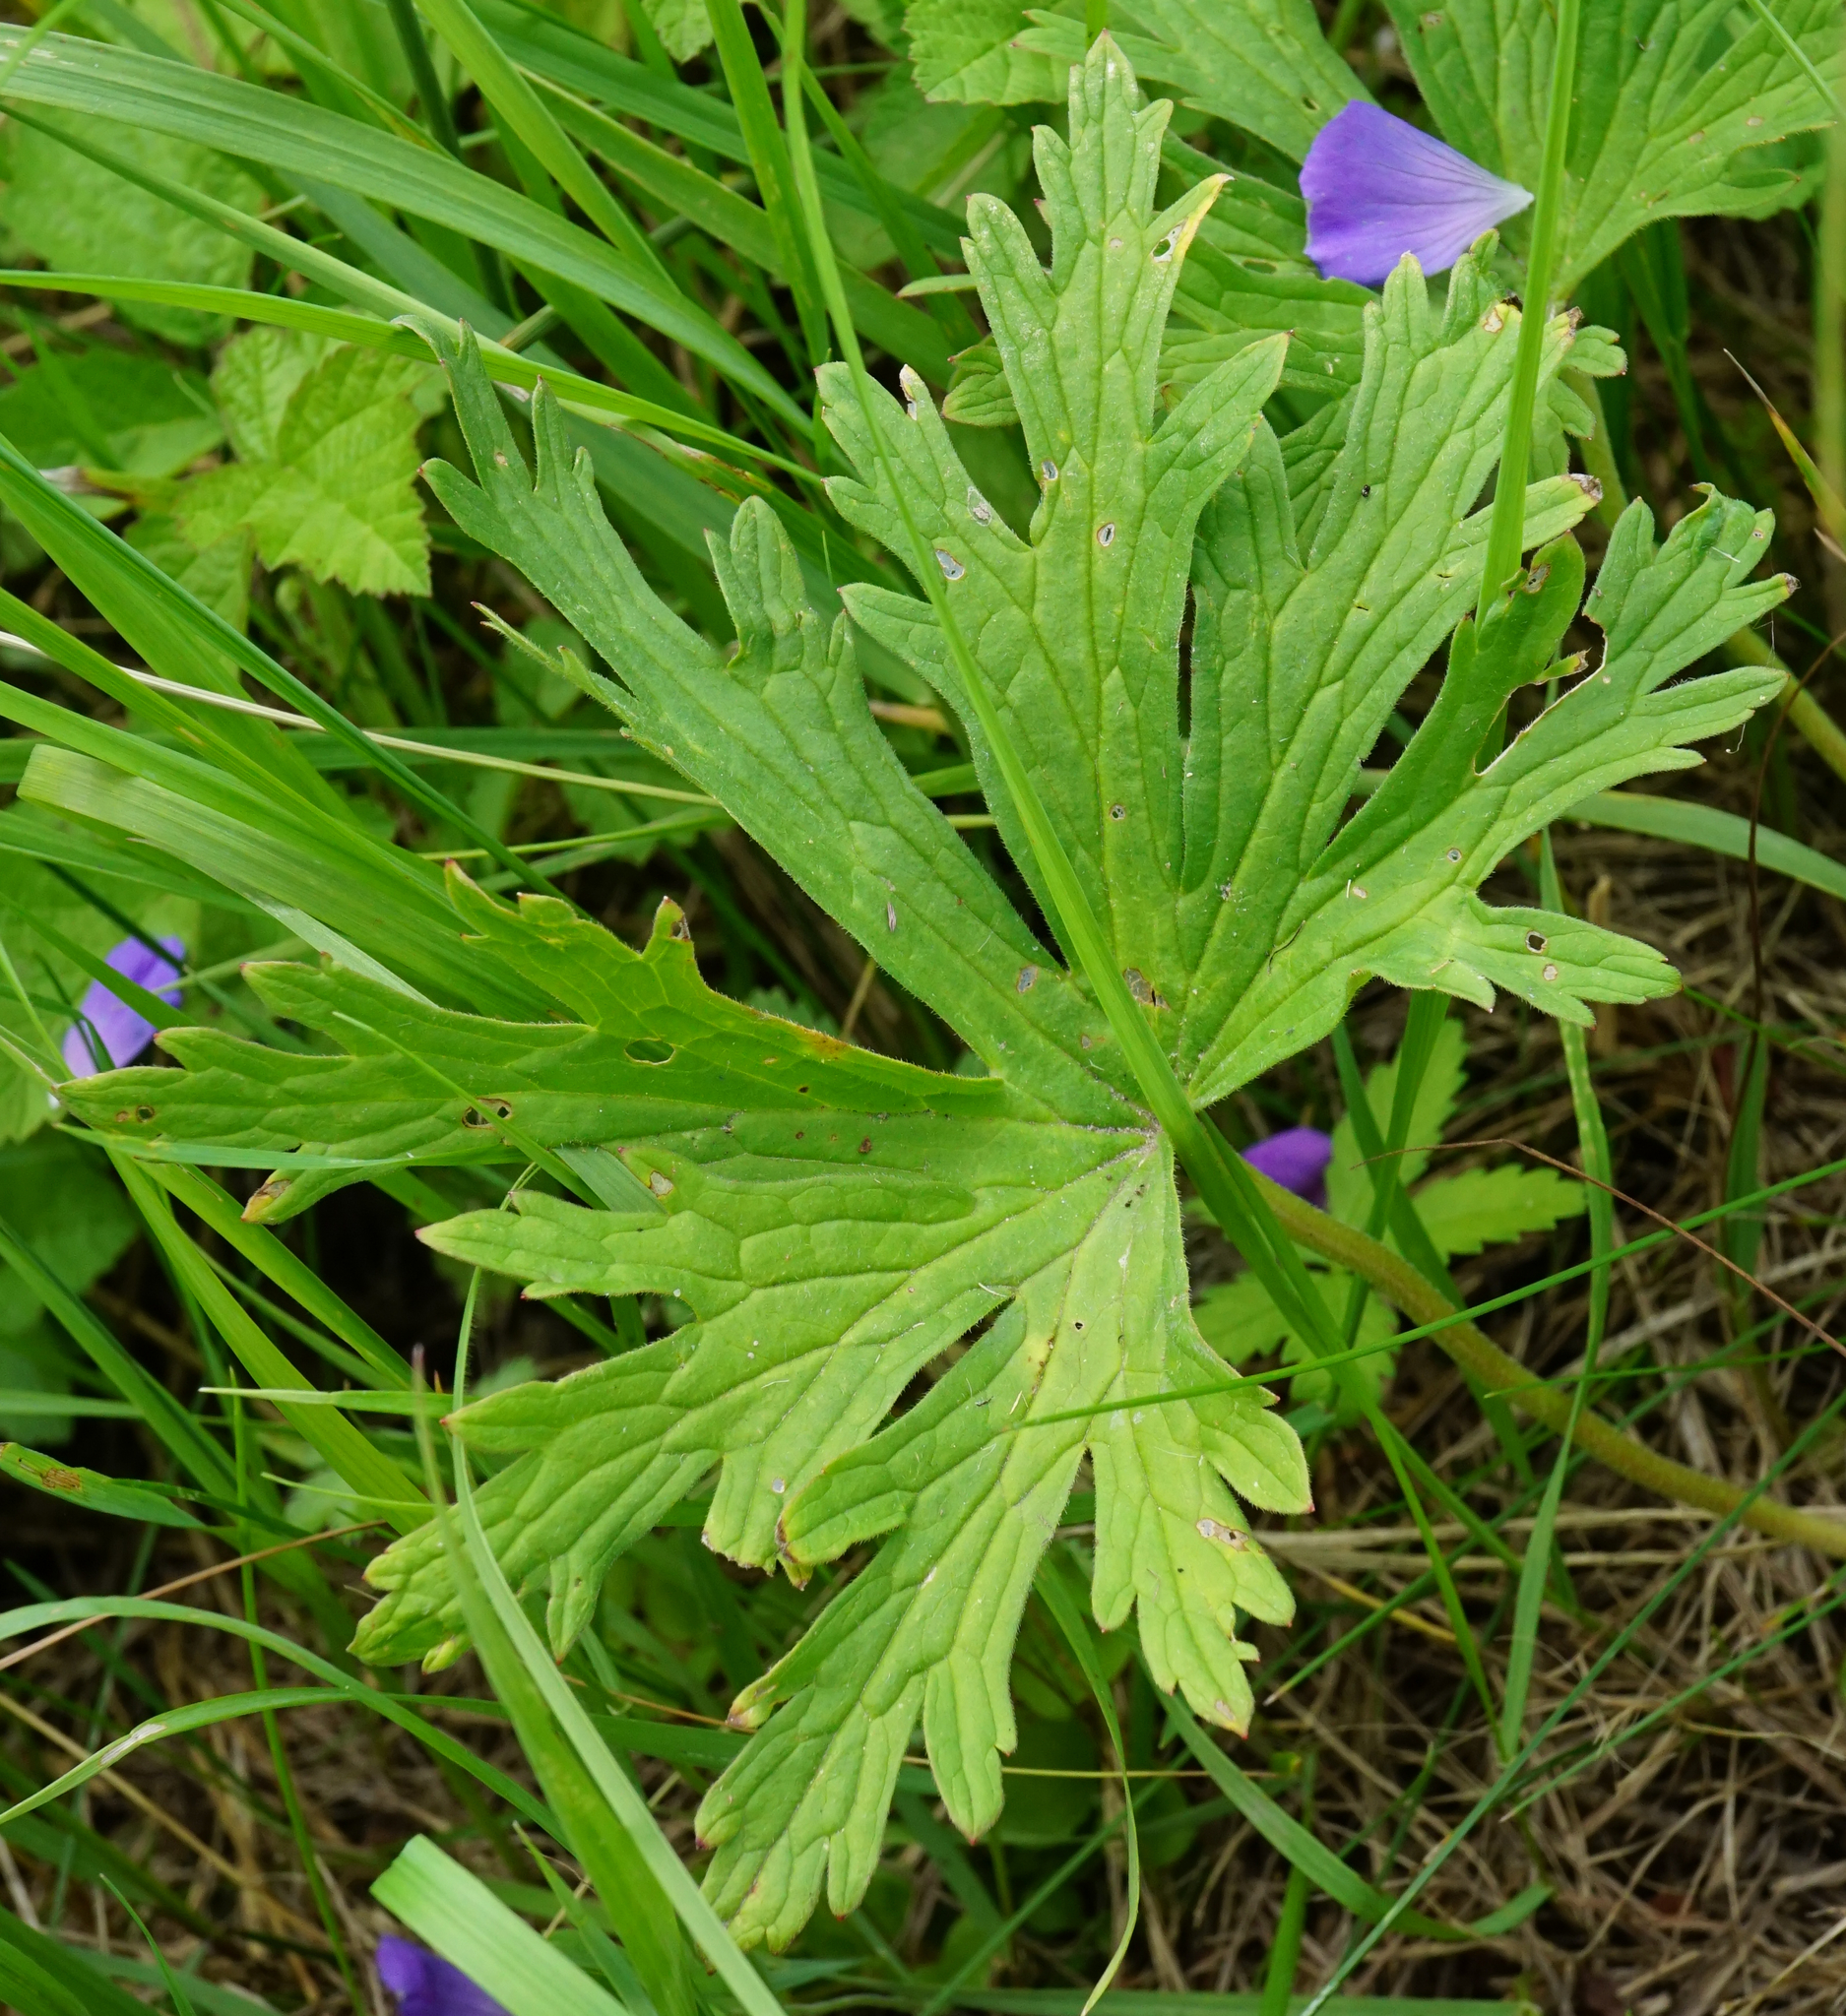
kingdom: Plantae
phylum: Tracheophyta
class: Magnoliopsida
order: Geraniales
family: Geraniaceae
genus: Geranium
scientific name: Geranium pratense
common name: Meadow crane's-bill
